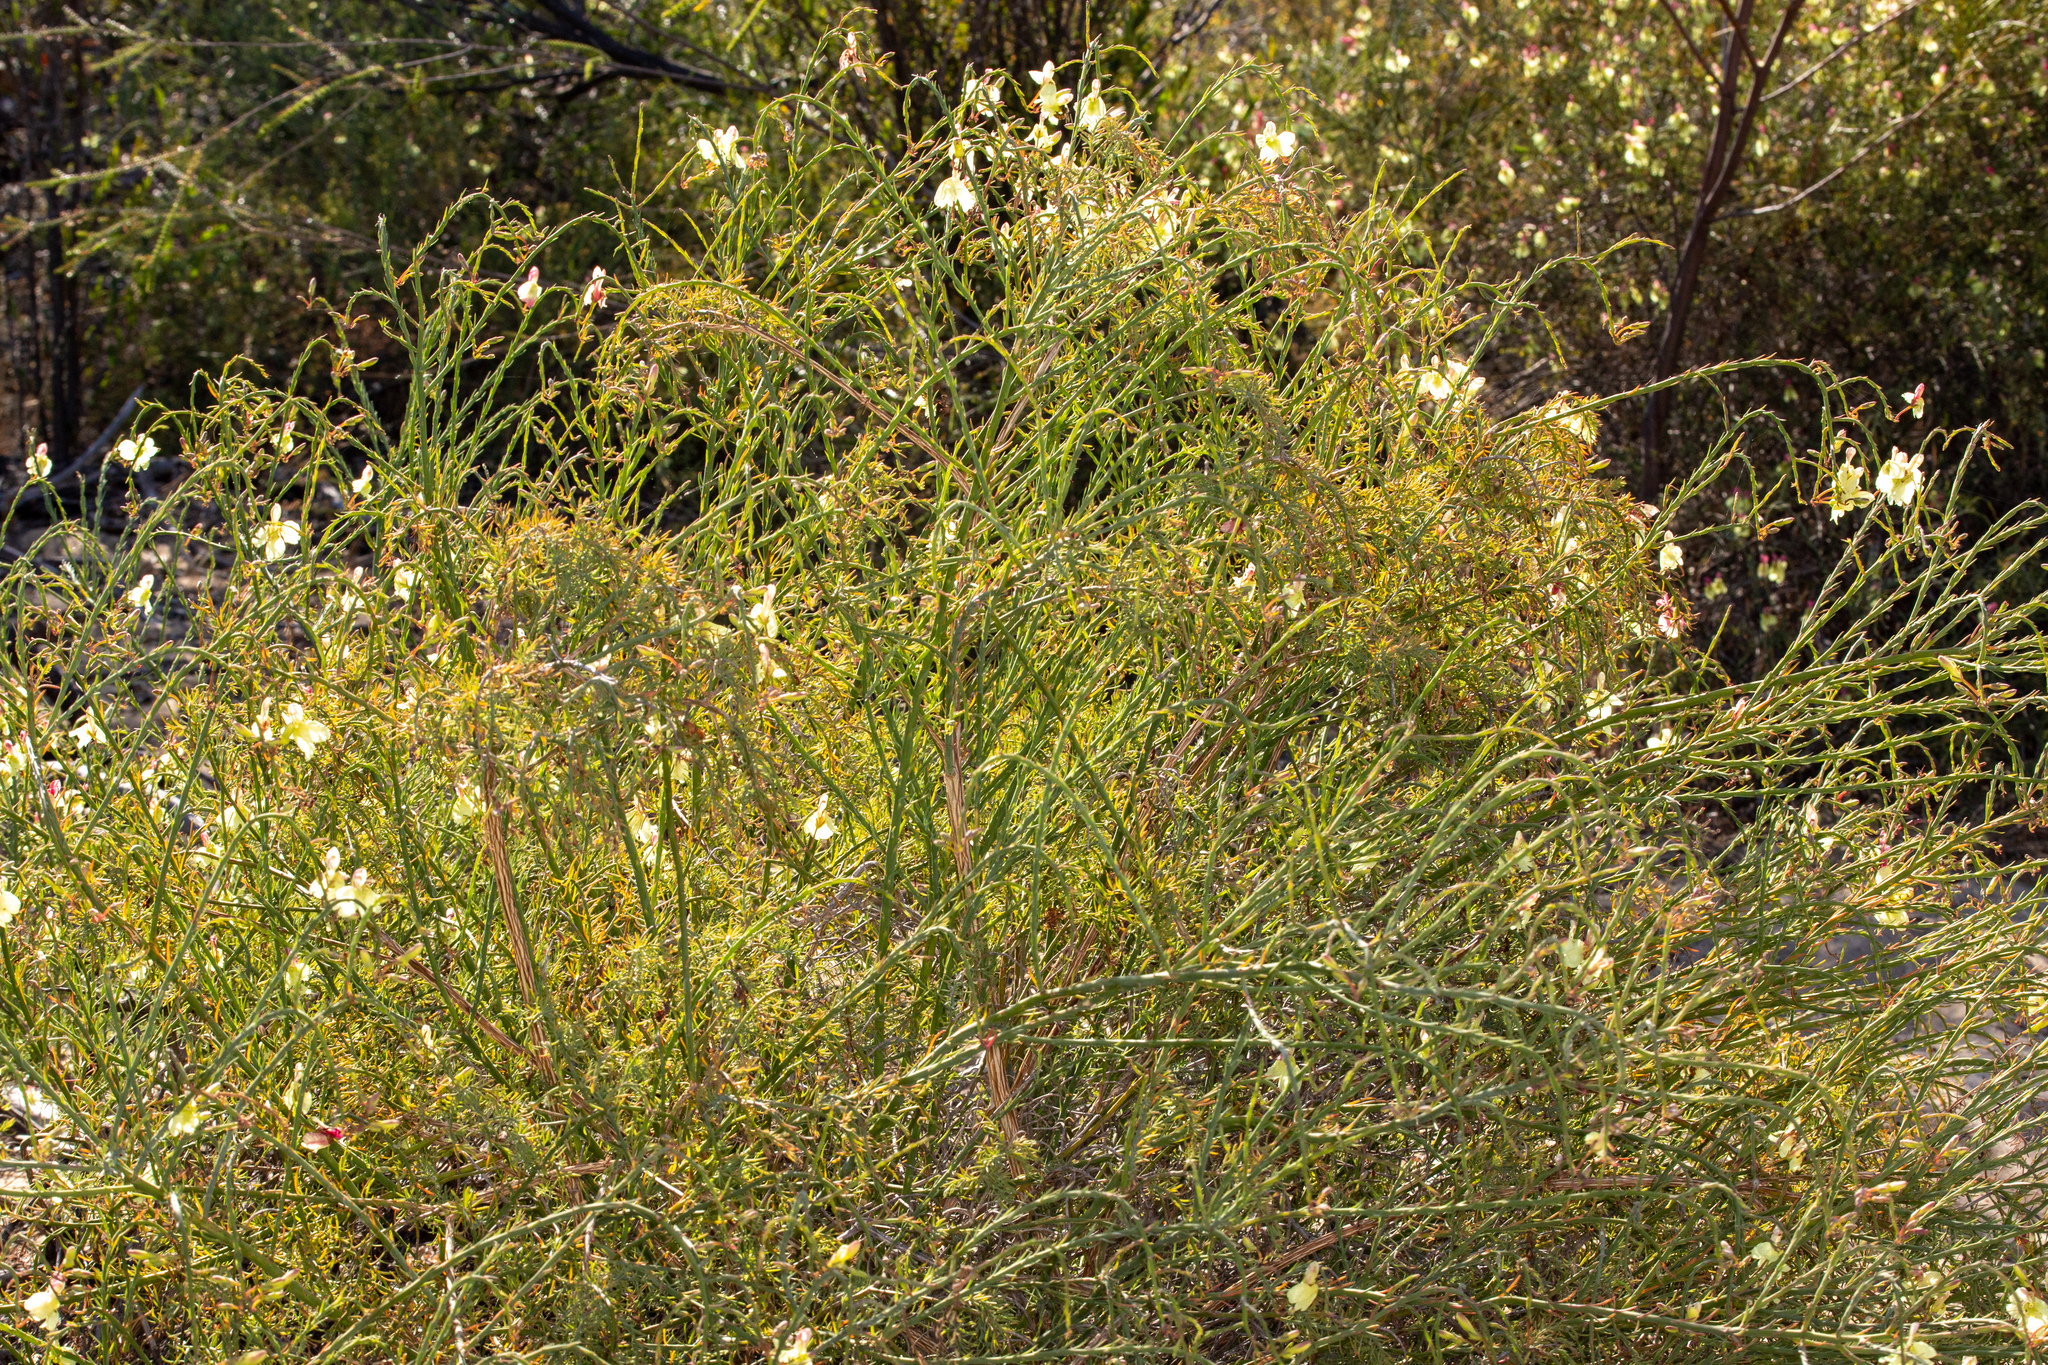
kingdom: Plantae
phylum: Tracheophyta
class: Magnoliopsida
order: Asterales
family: Goodeniaceae
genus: Lechenaultia
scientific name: Lechenaultia linarioides
